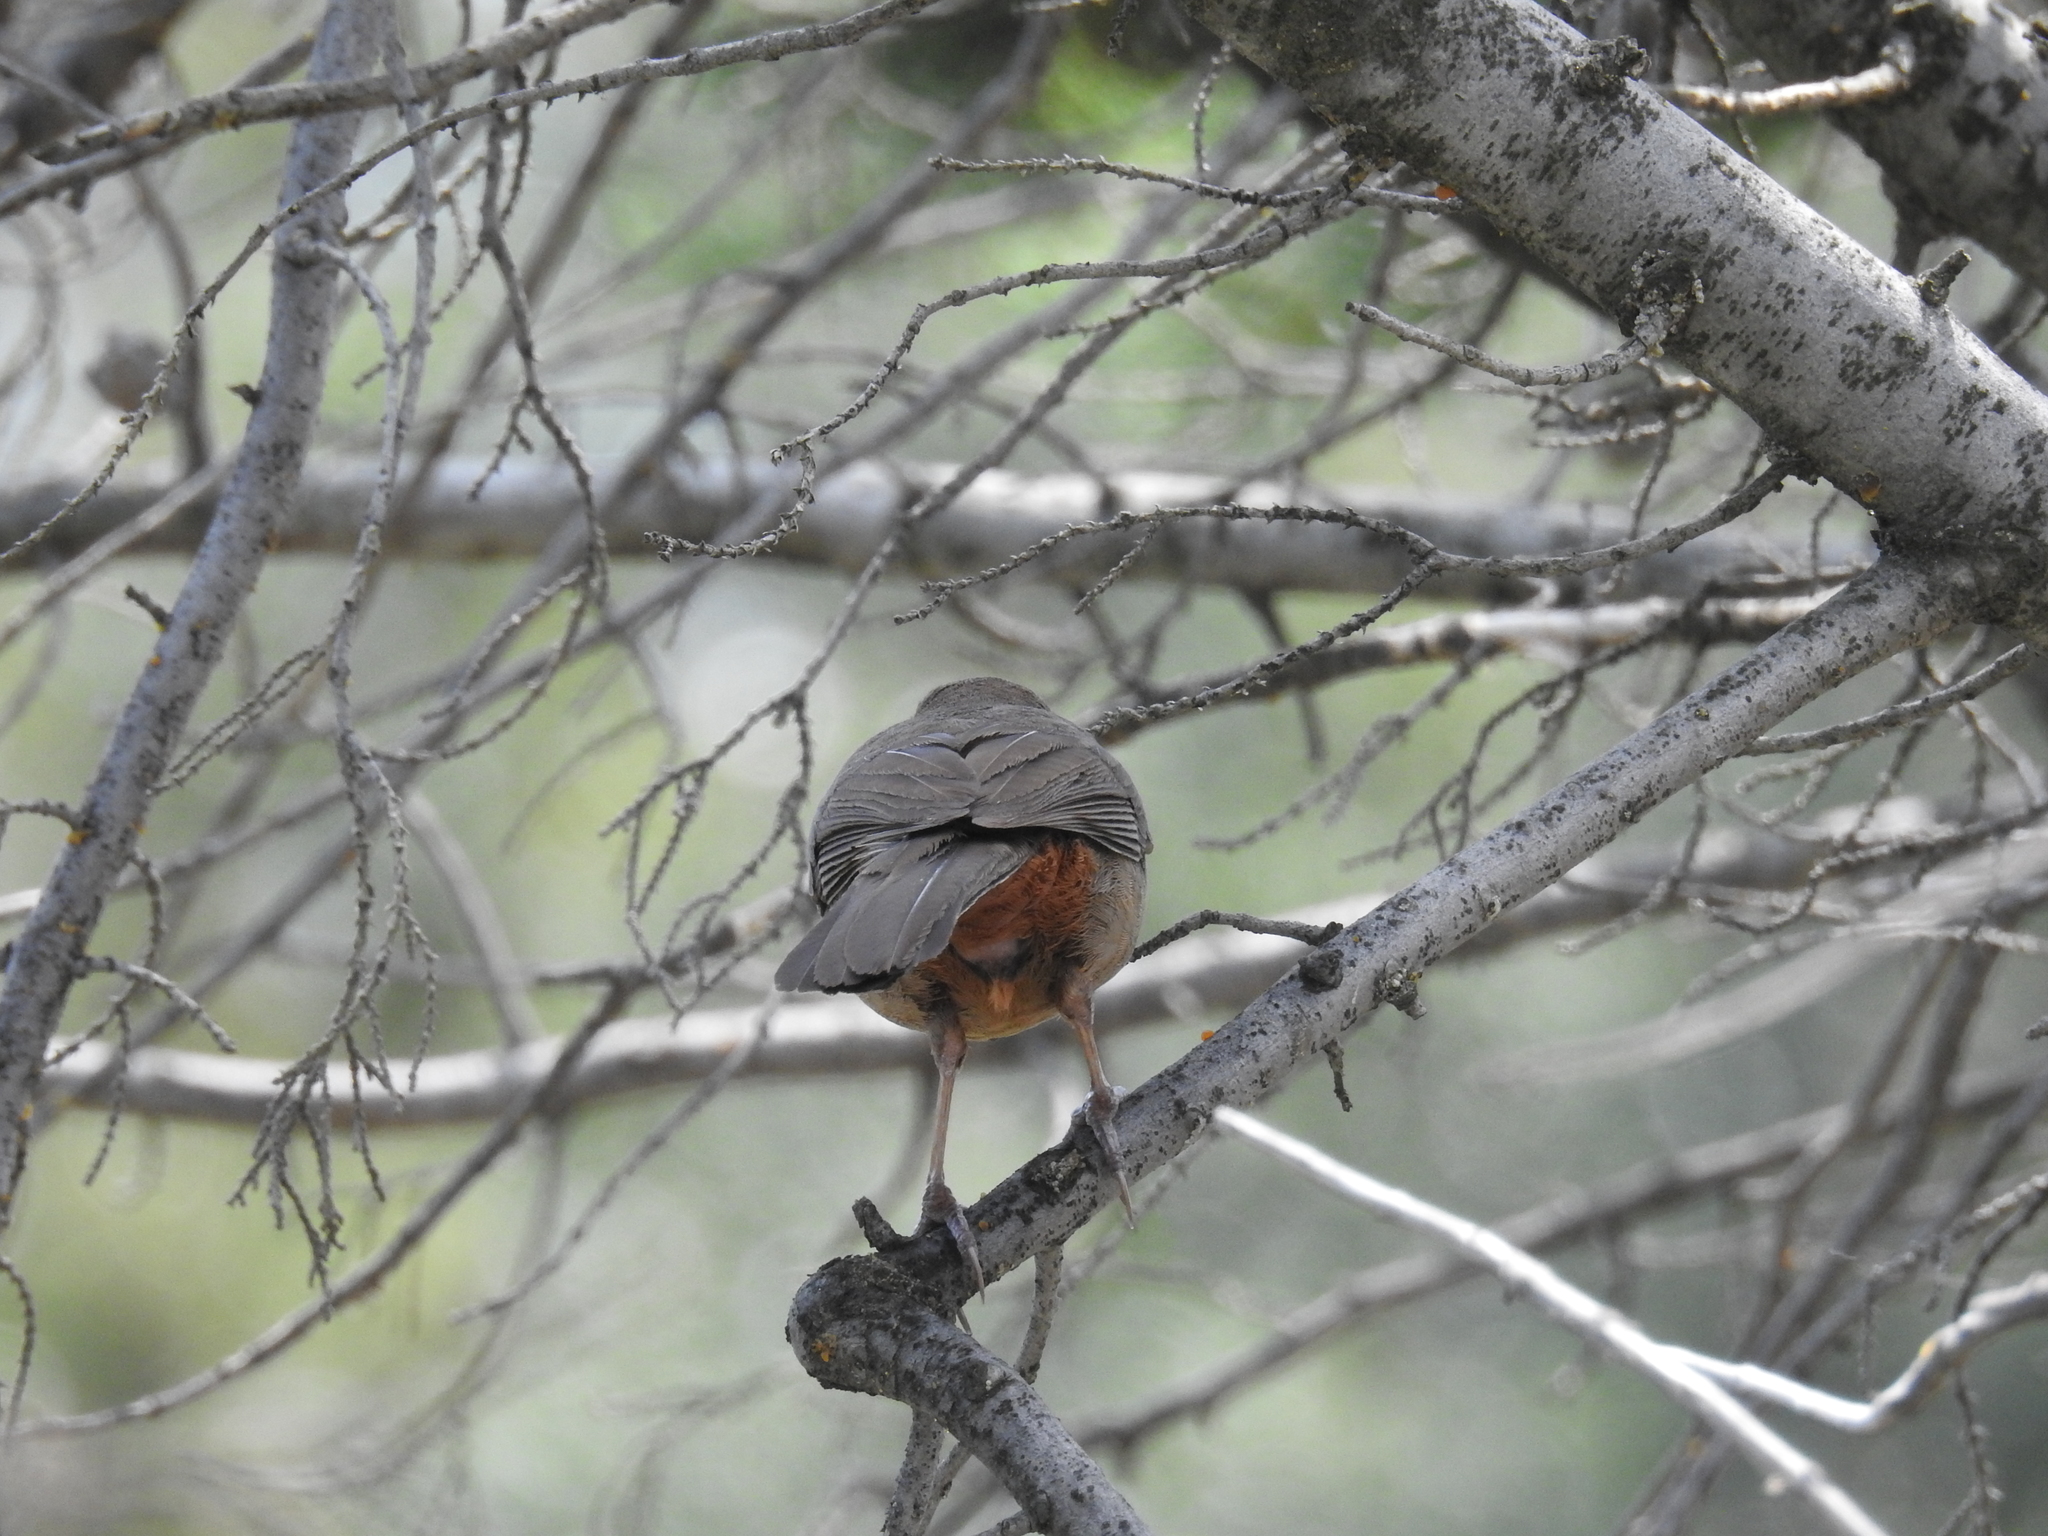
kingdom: Animalia
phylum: Chordata
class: Aves
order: Passeriformes
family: Passerellidae
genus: Melozone
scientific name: Melozone crissalis
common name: California towhee
